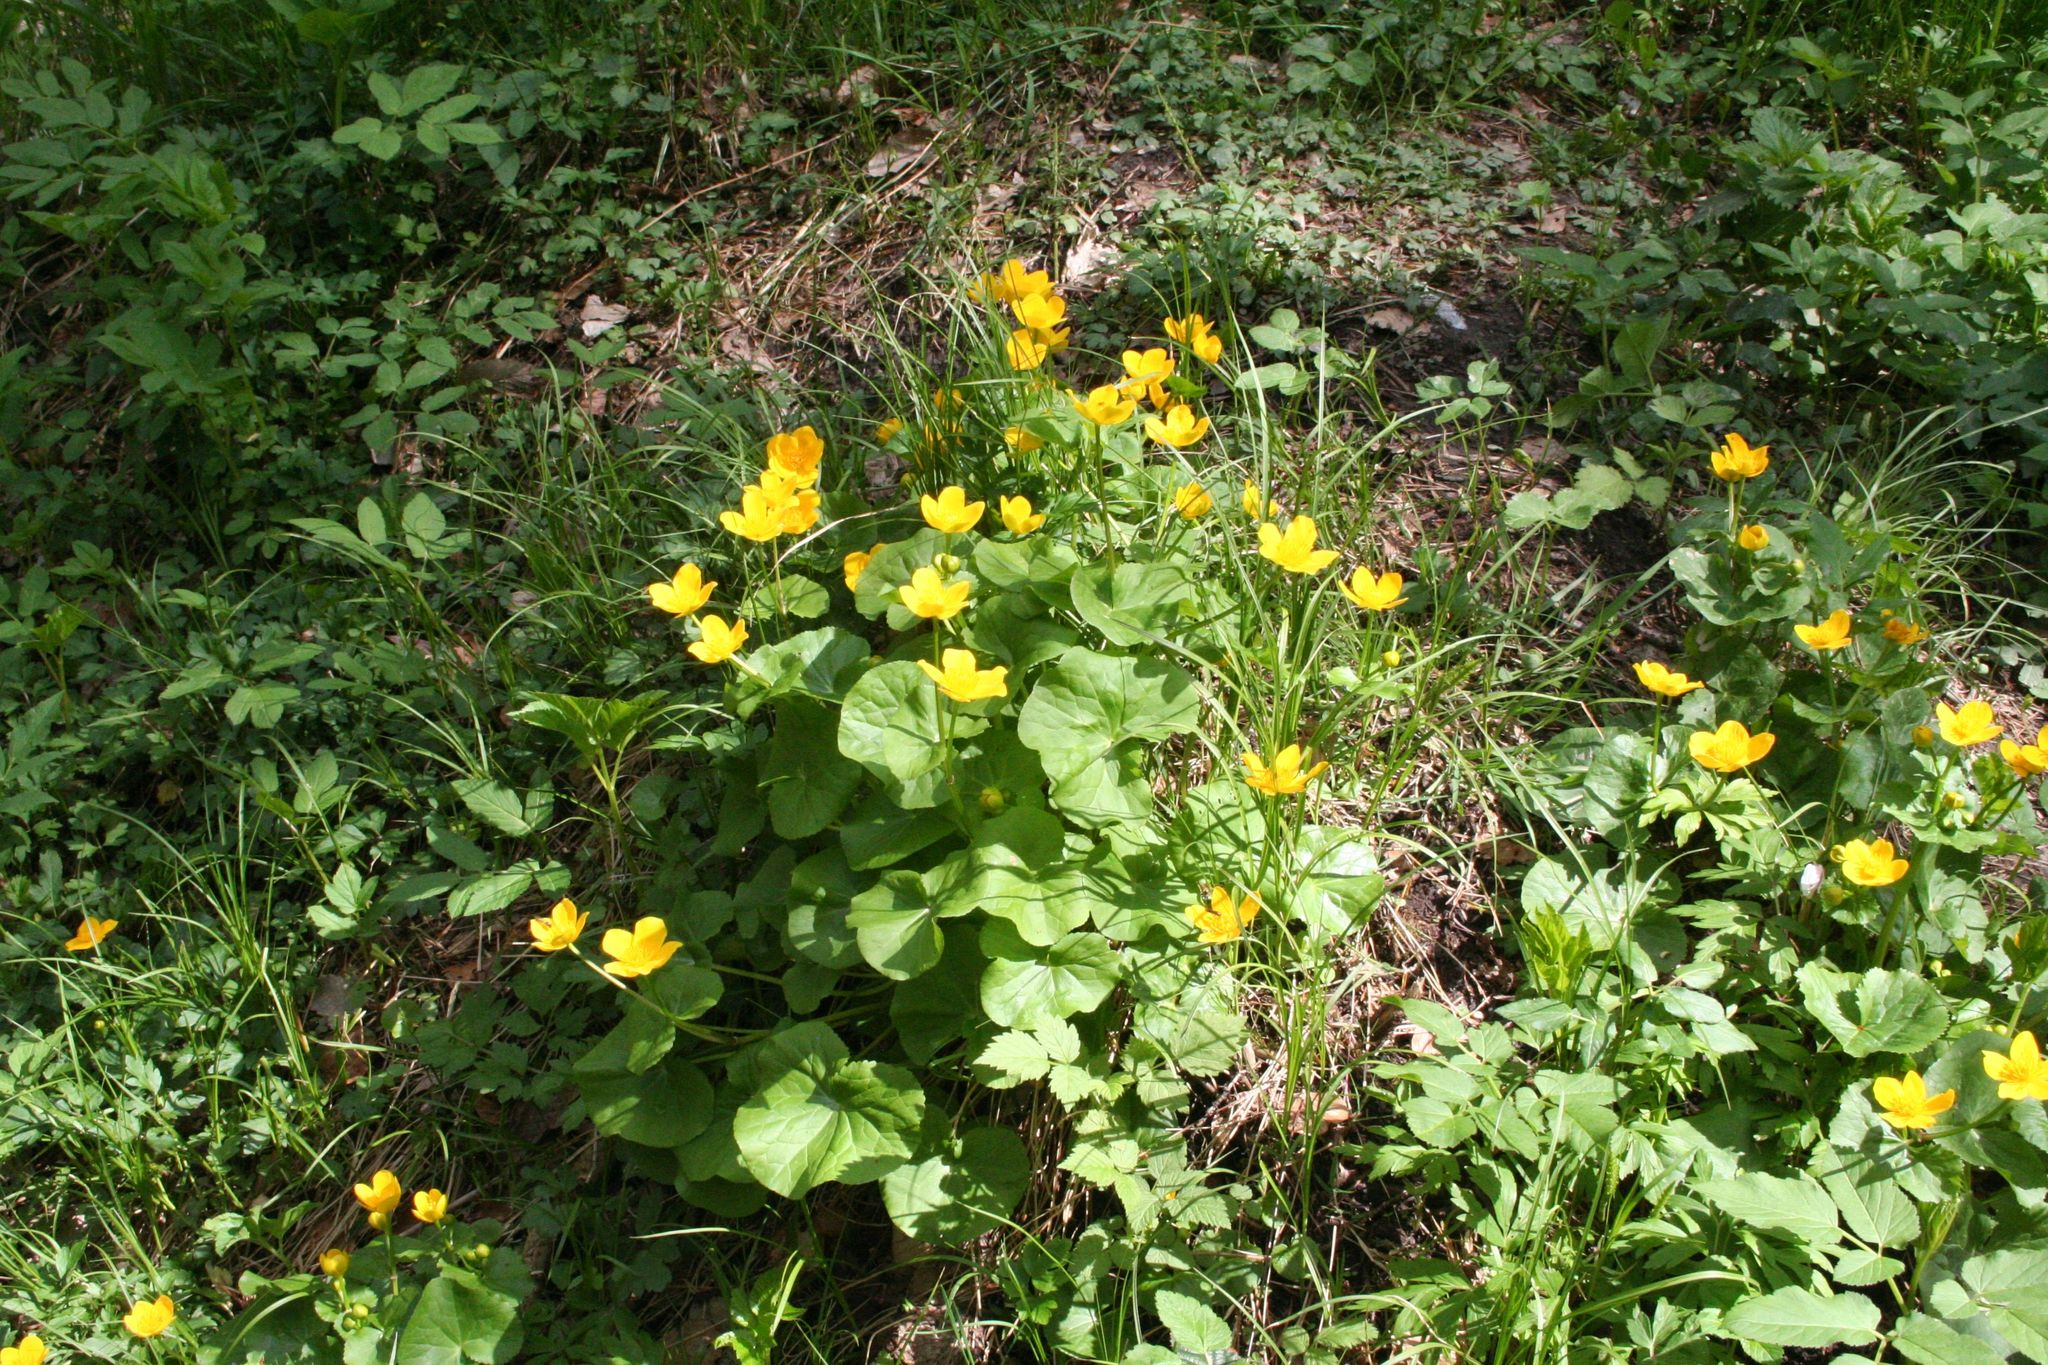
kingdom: Plantae
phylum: Tracheophyta
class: Magnoliopsida
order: Ranunculales
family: Ranunculaceae
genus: Caltha
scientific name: Caltha palustris
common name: Marsh marigold
